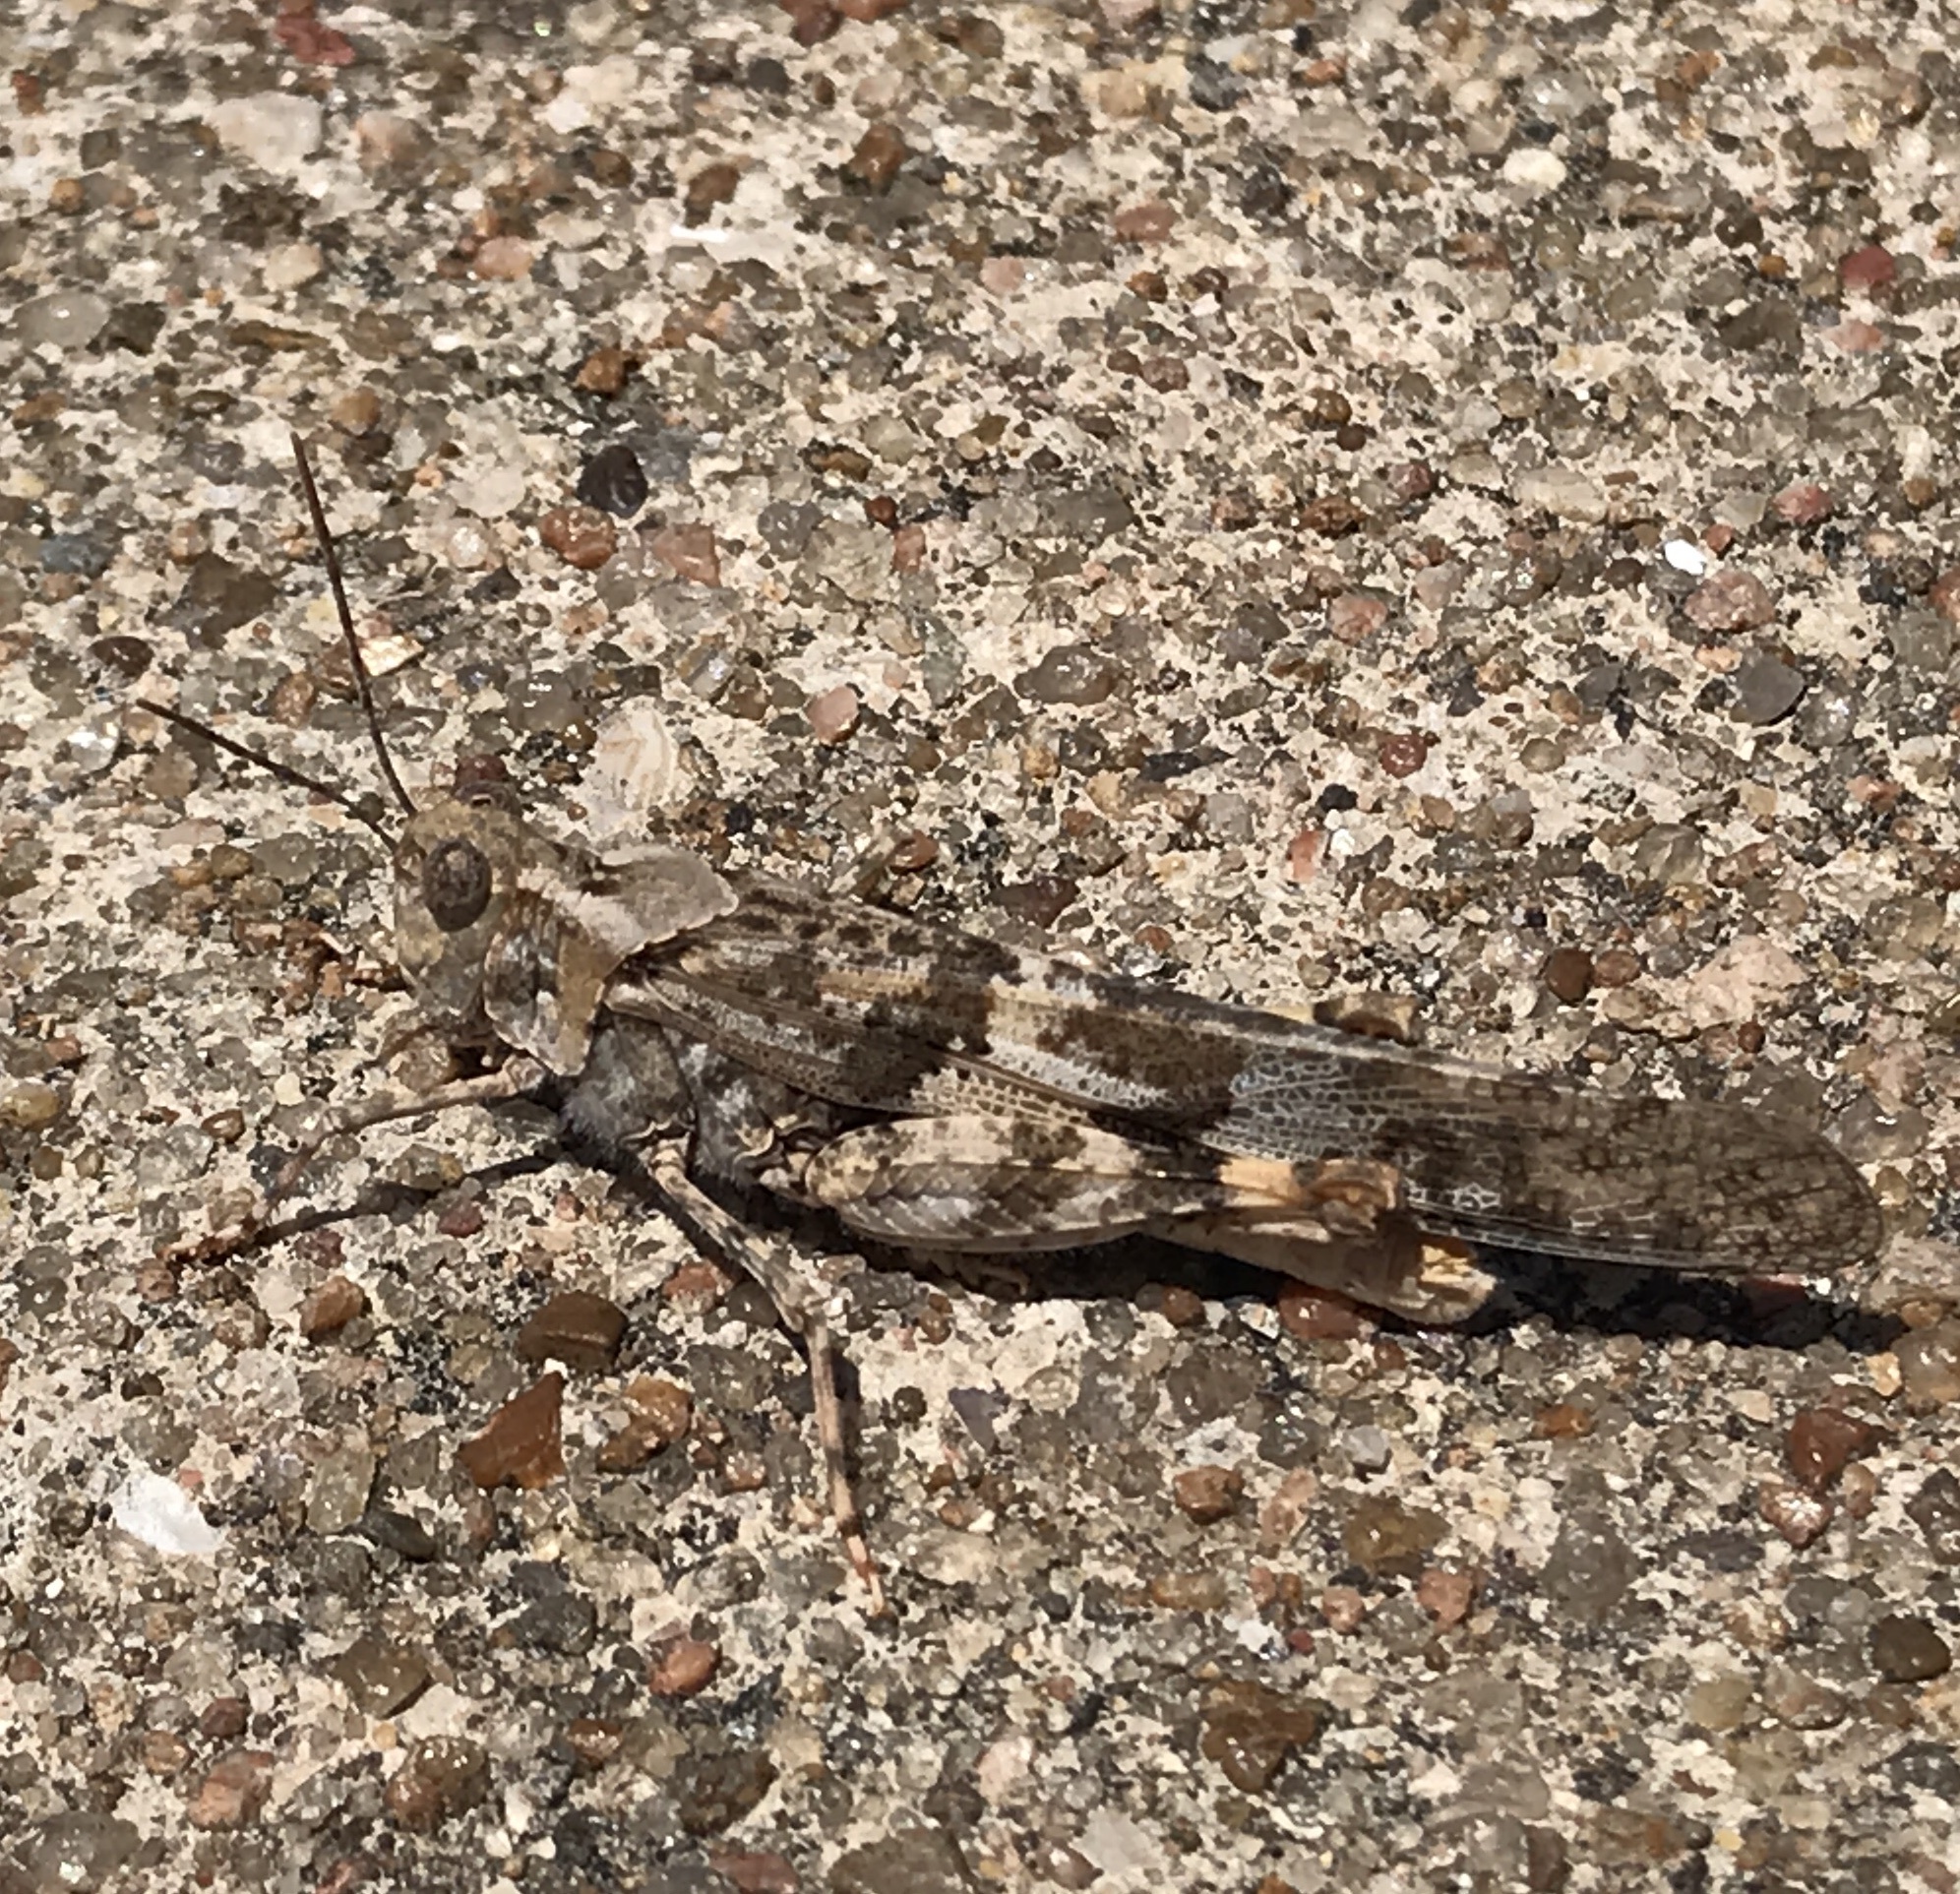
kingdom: Animalia
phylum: Arthropoda
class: Insecta
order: Orthoptera
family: Acrididae
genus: Trimerotropis
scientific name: Trimerotropis pallidipennis
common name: Pallid-winged grasshopper
